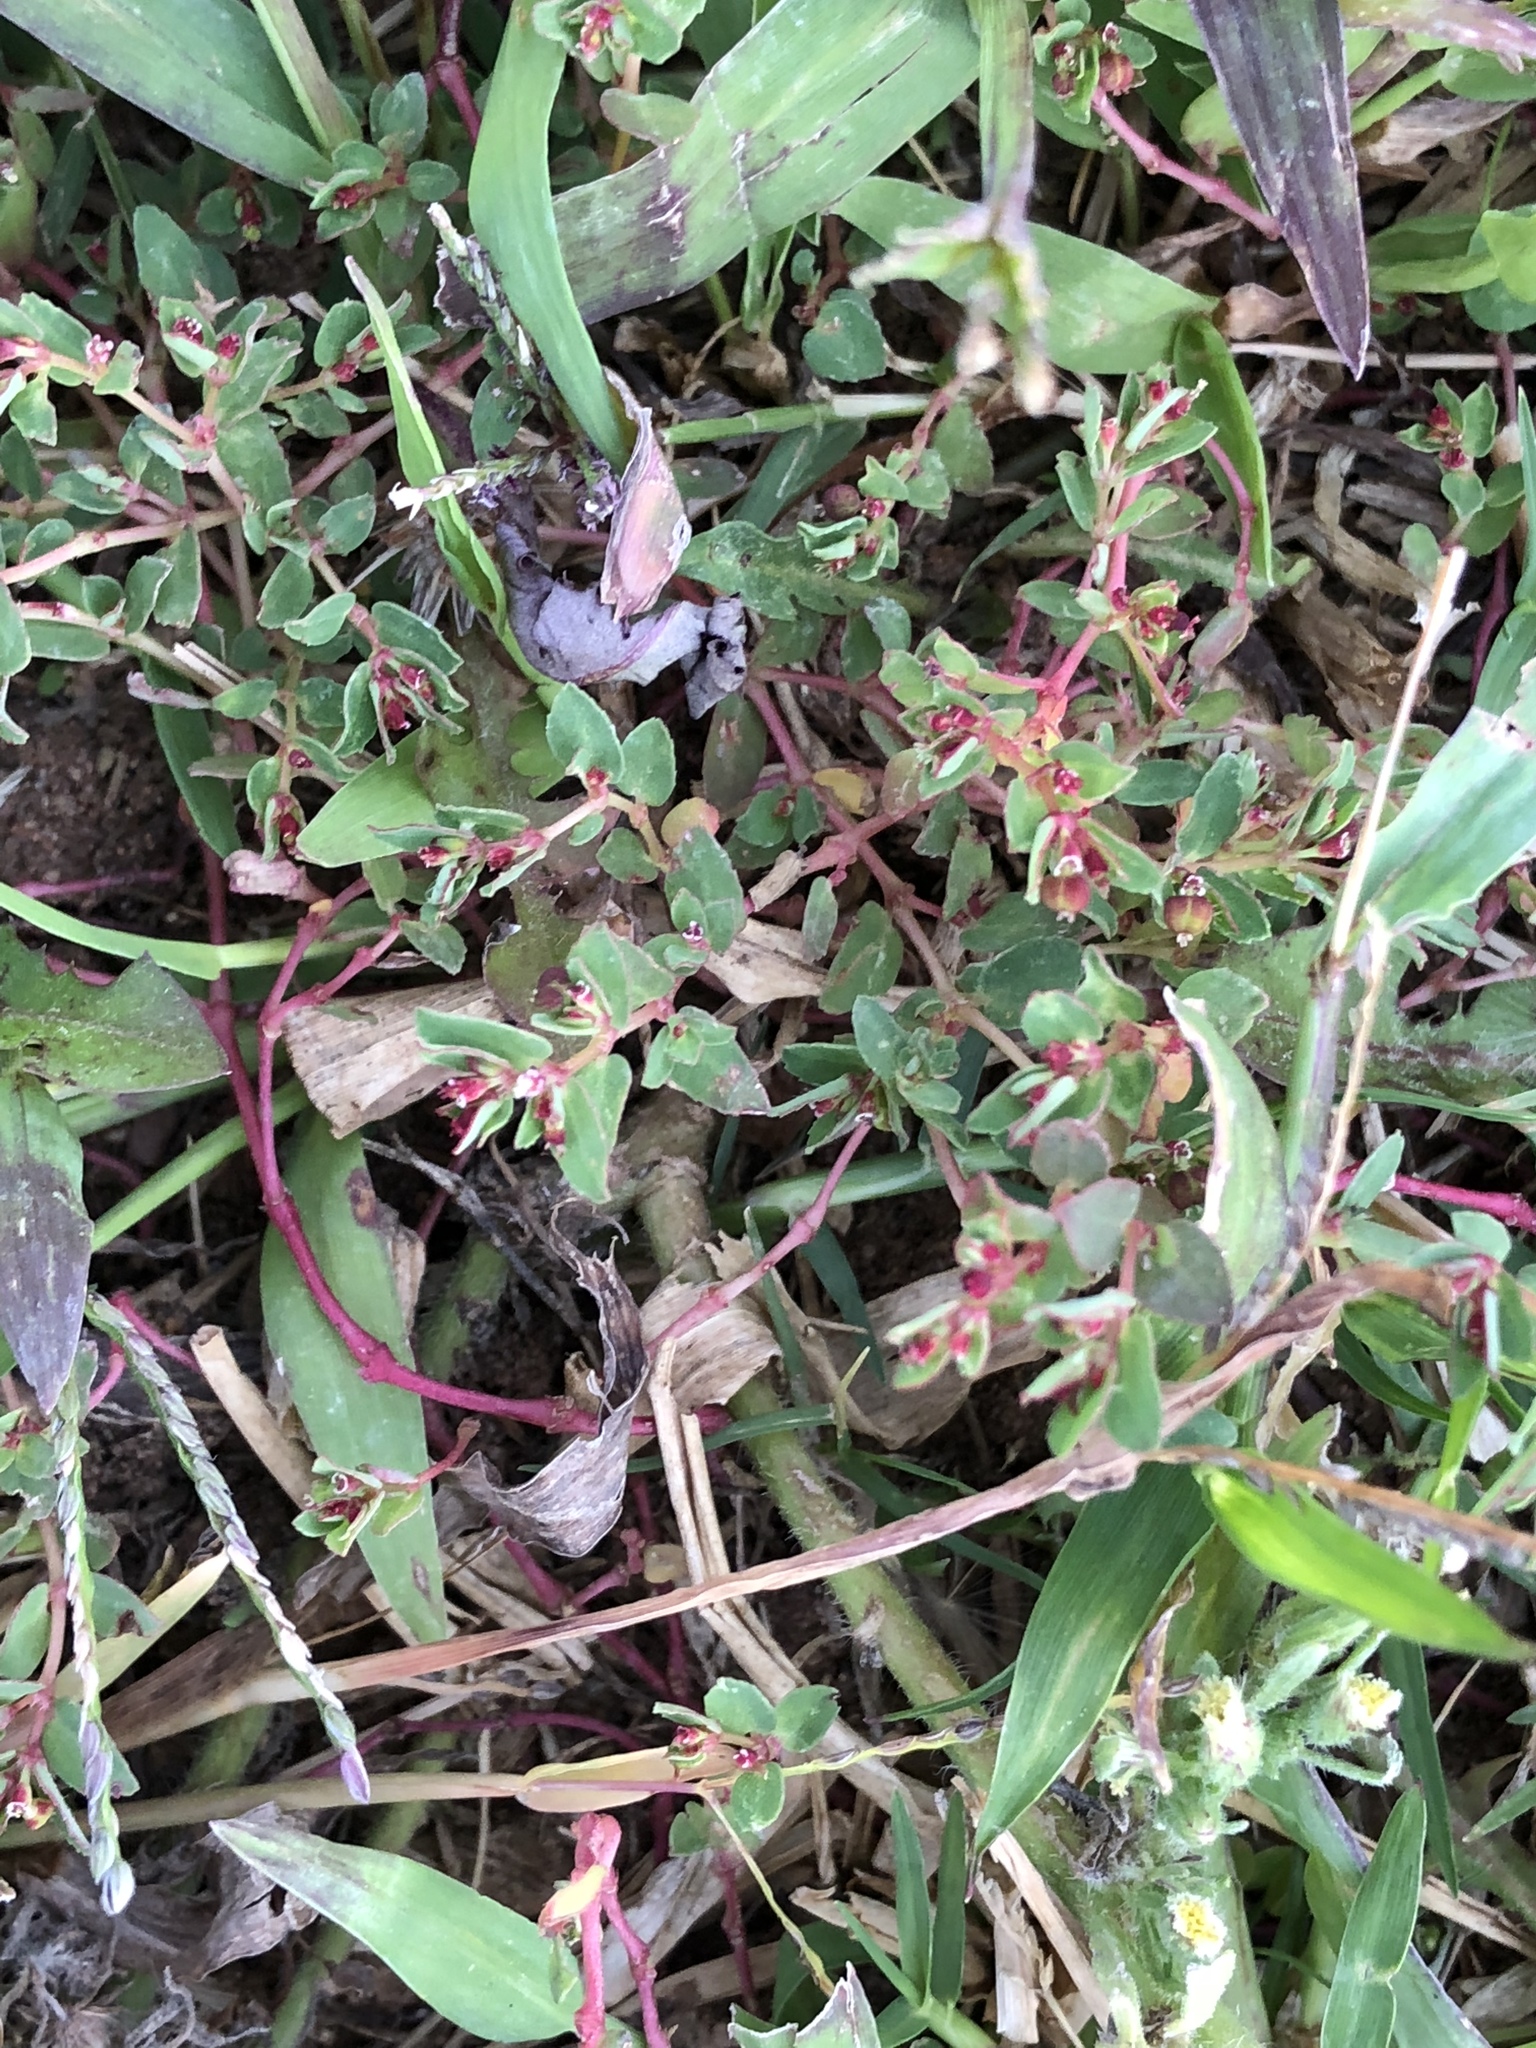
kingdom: Plantae
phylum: Tracheophyta
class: Magnoliopsida
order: Malpighiales
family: Euphorbiaceae
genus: Euphorbia
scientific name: Euphorbia vermiculata
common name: Hairy spurge
